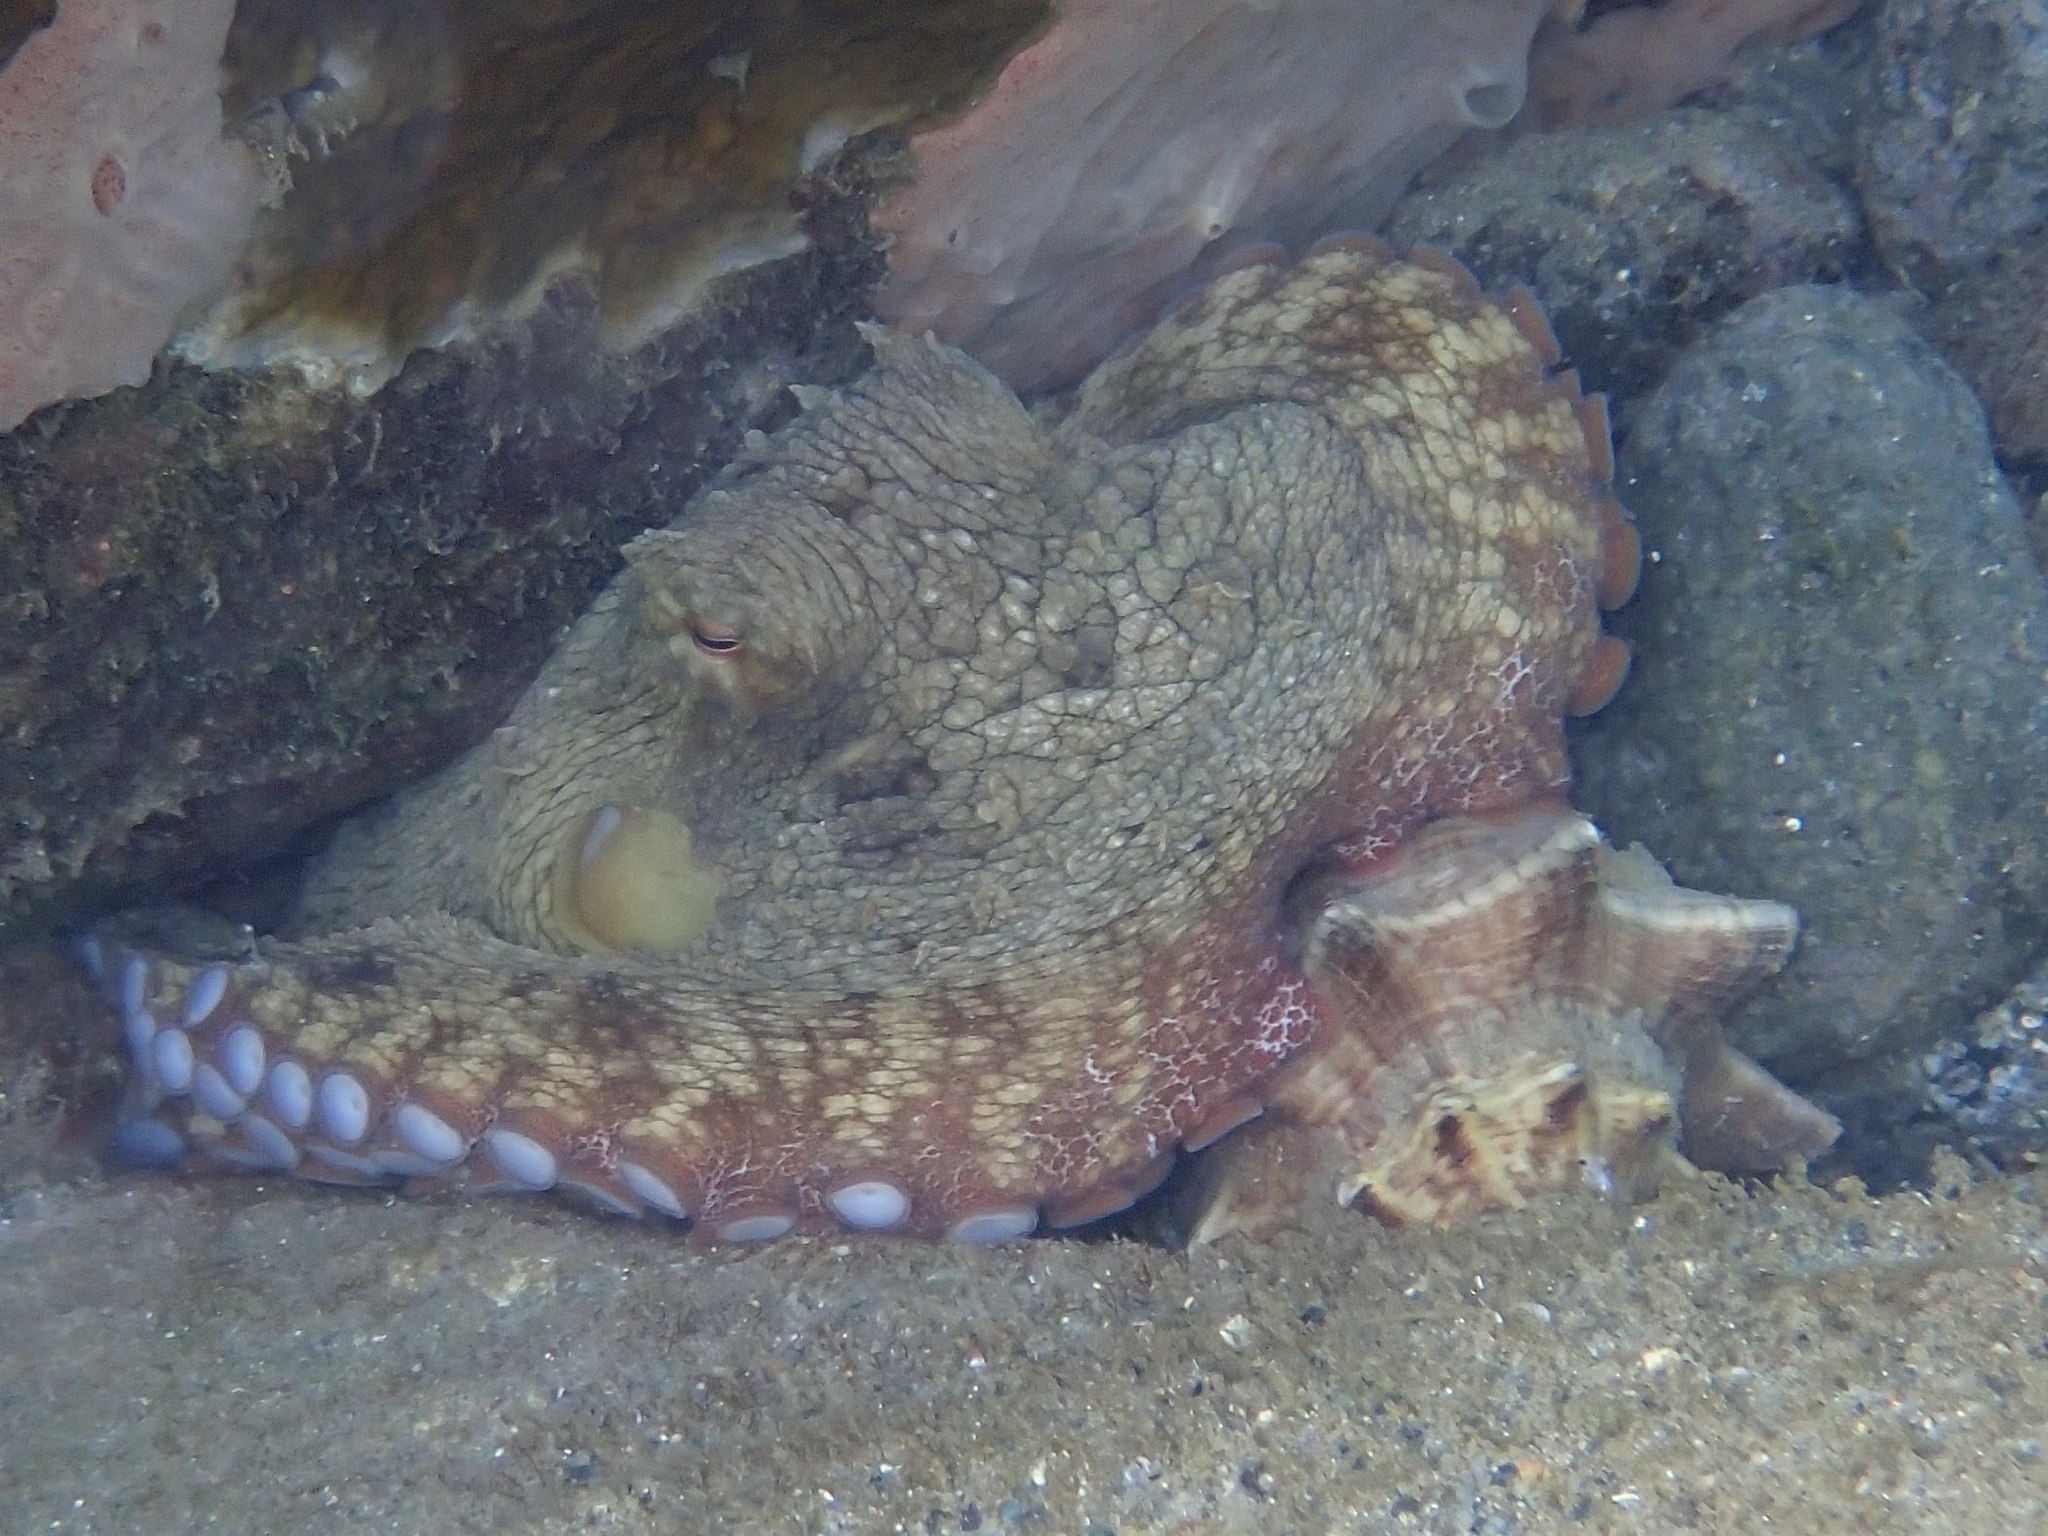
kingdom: Animalia
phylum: Mollusca
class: Cephalopoda
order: Octopoda
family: Octopodidae
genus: Octopus
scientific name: Octopus insularis
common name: Brazil reef octopus
